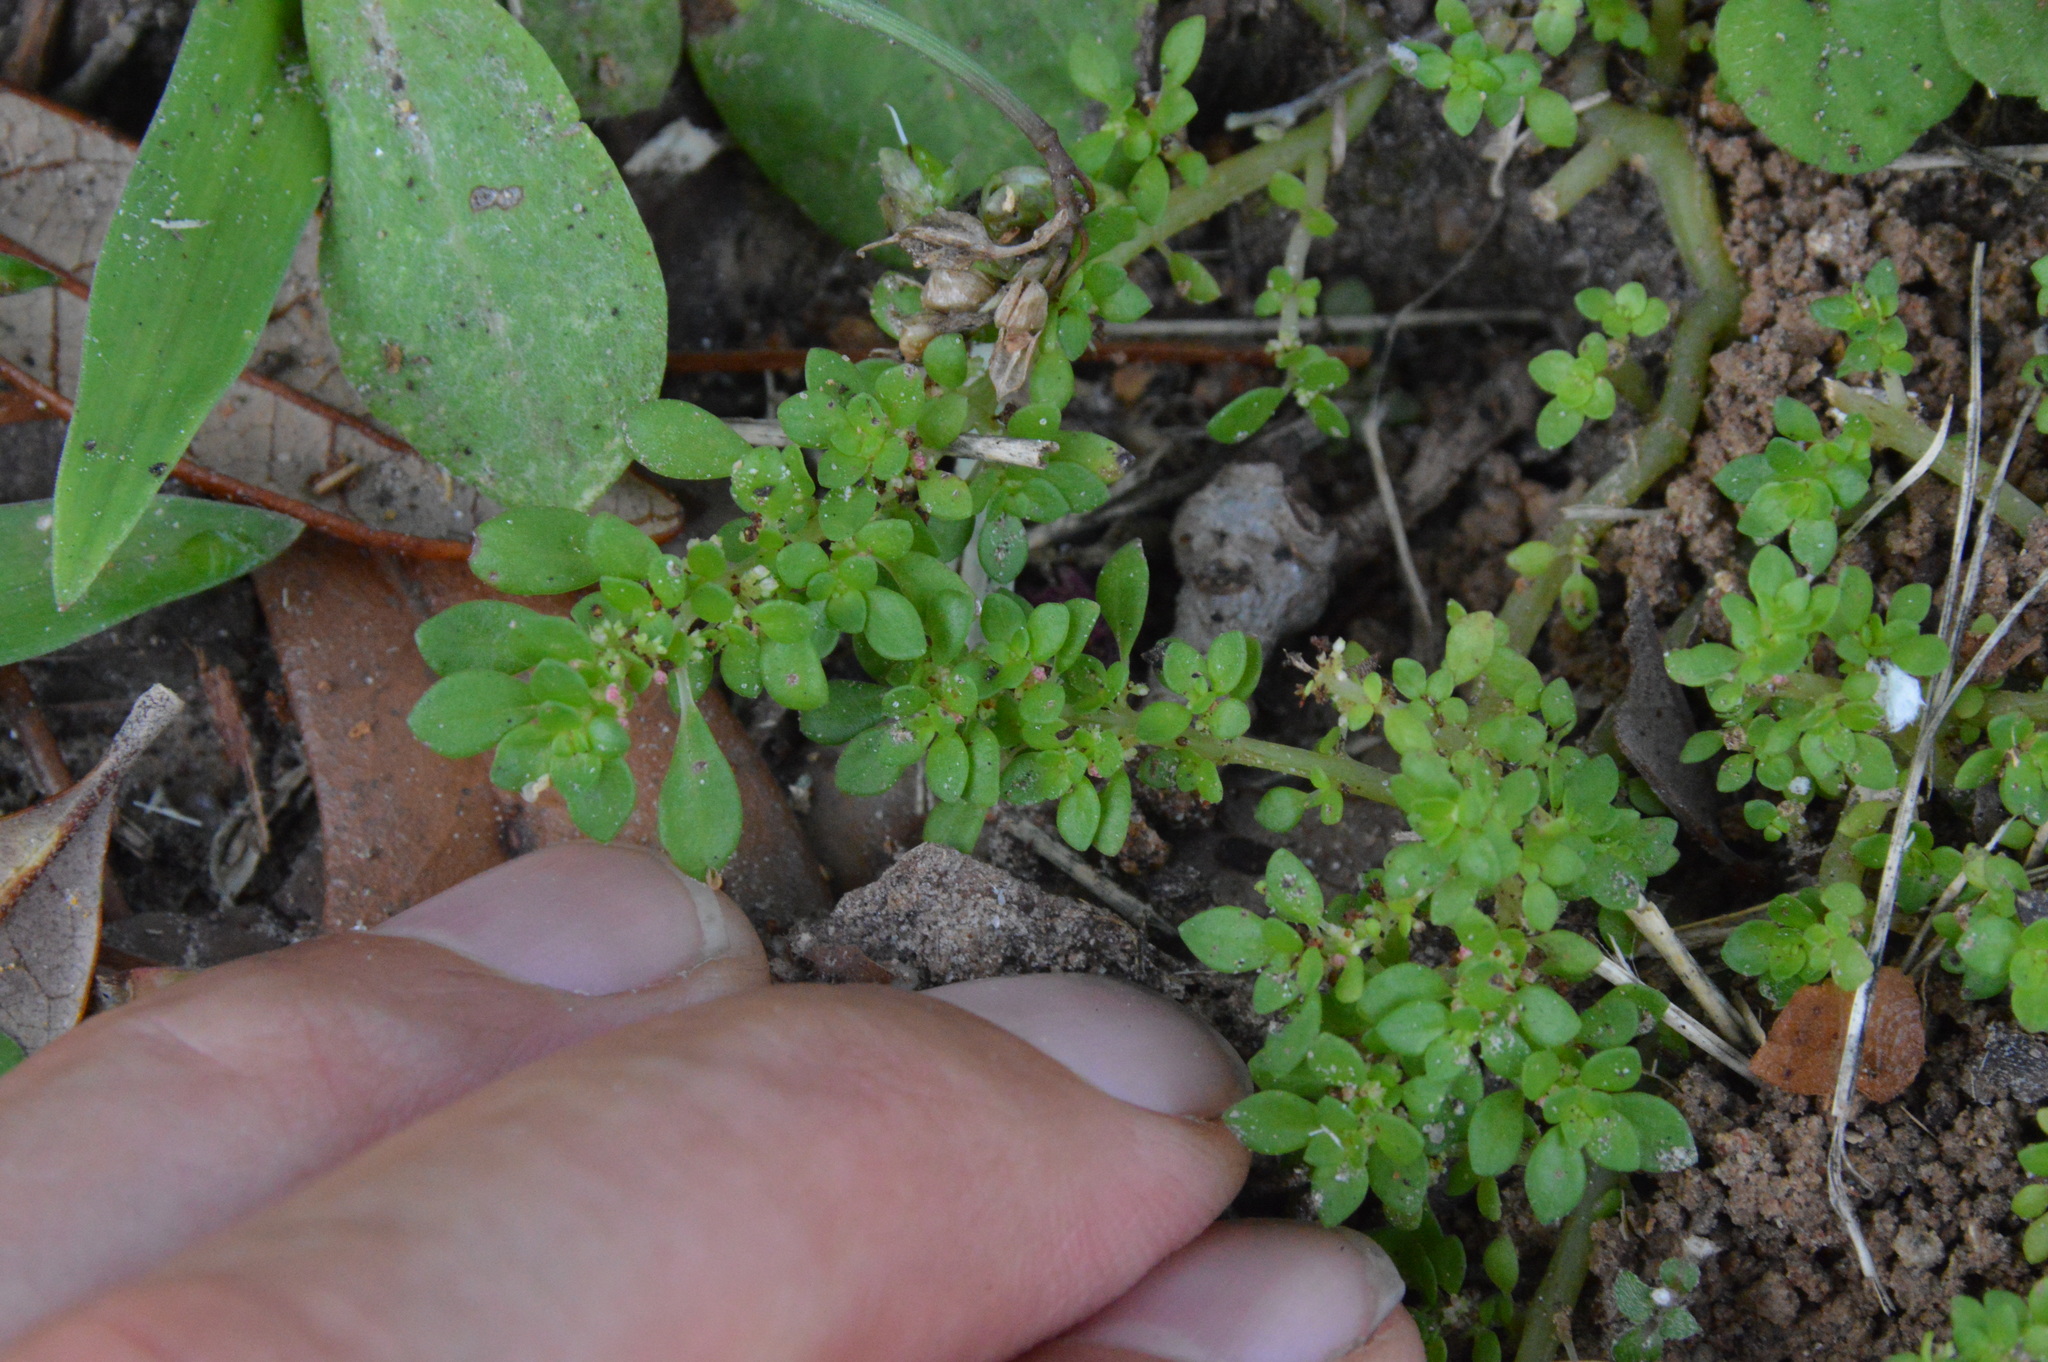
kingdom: Plantae
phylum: Tracheophyta
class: Magnoliopsida
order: Rosales
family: Urticaceae
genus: Pilea
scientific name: Pilea microphylla
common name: Artillery-plant
